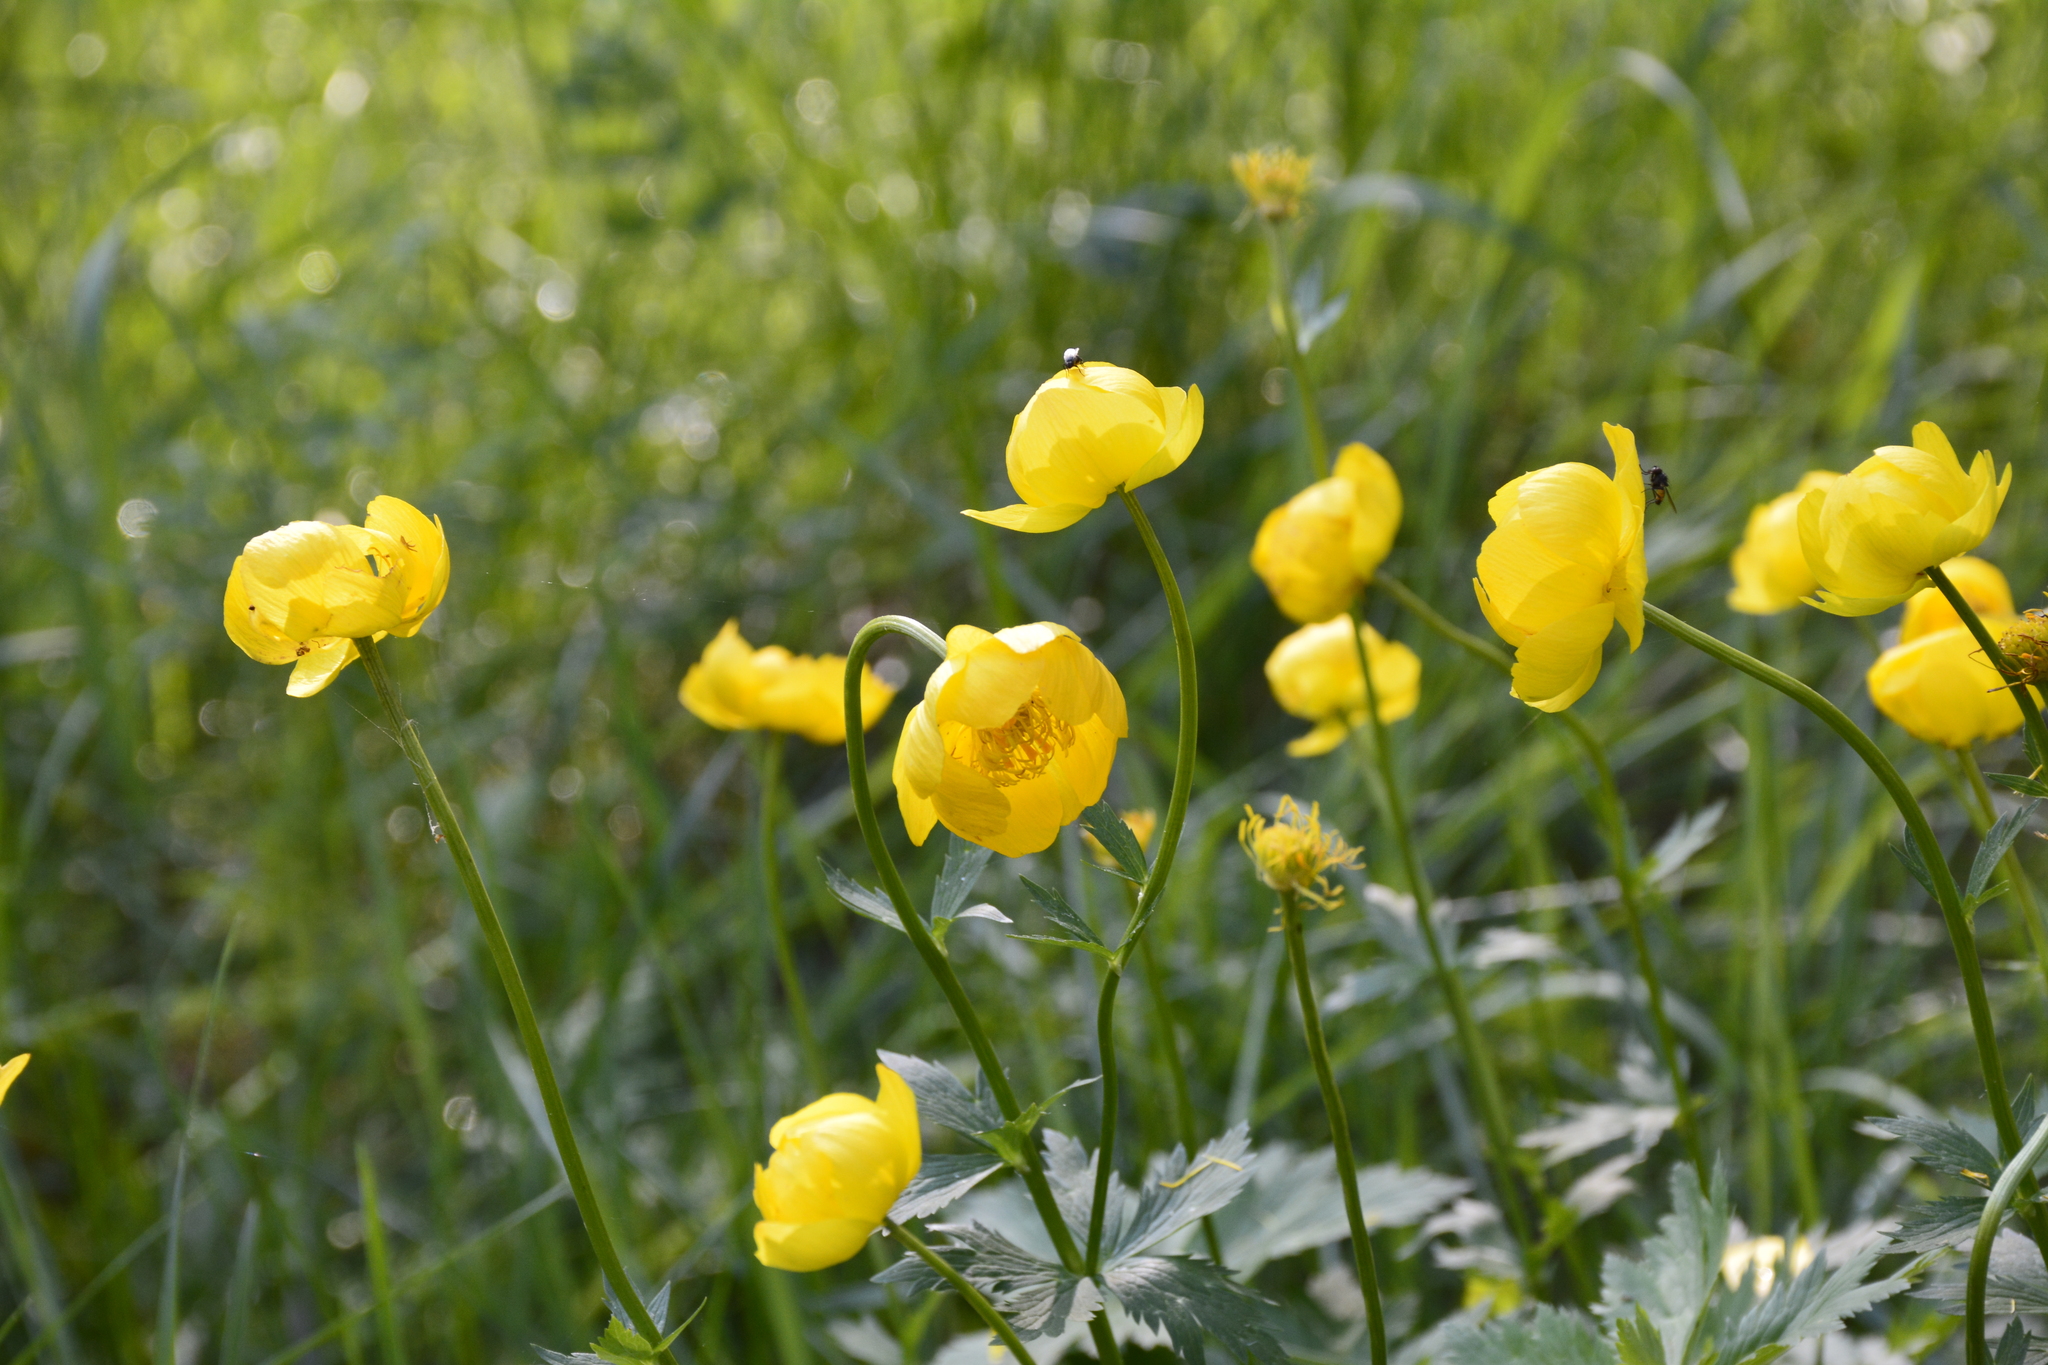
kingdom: Plantae
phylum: Tracheophyta
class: Magnoliopsida
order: Ranunculales
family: Ranunculaceae
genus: Trollius
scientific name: Trollius europaeus
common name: European globeflower
